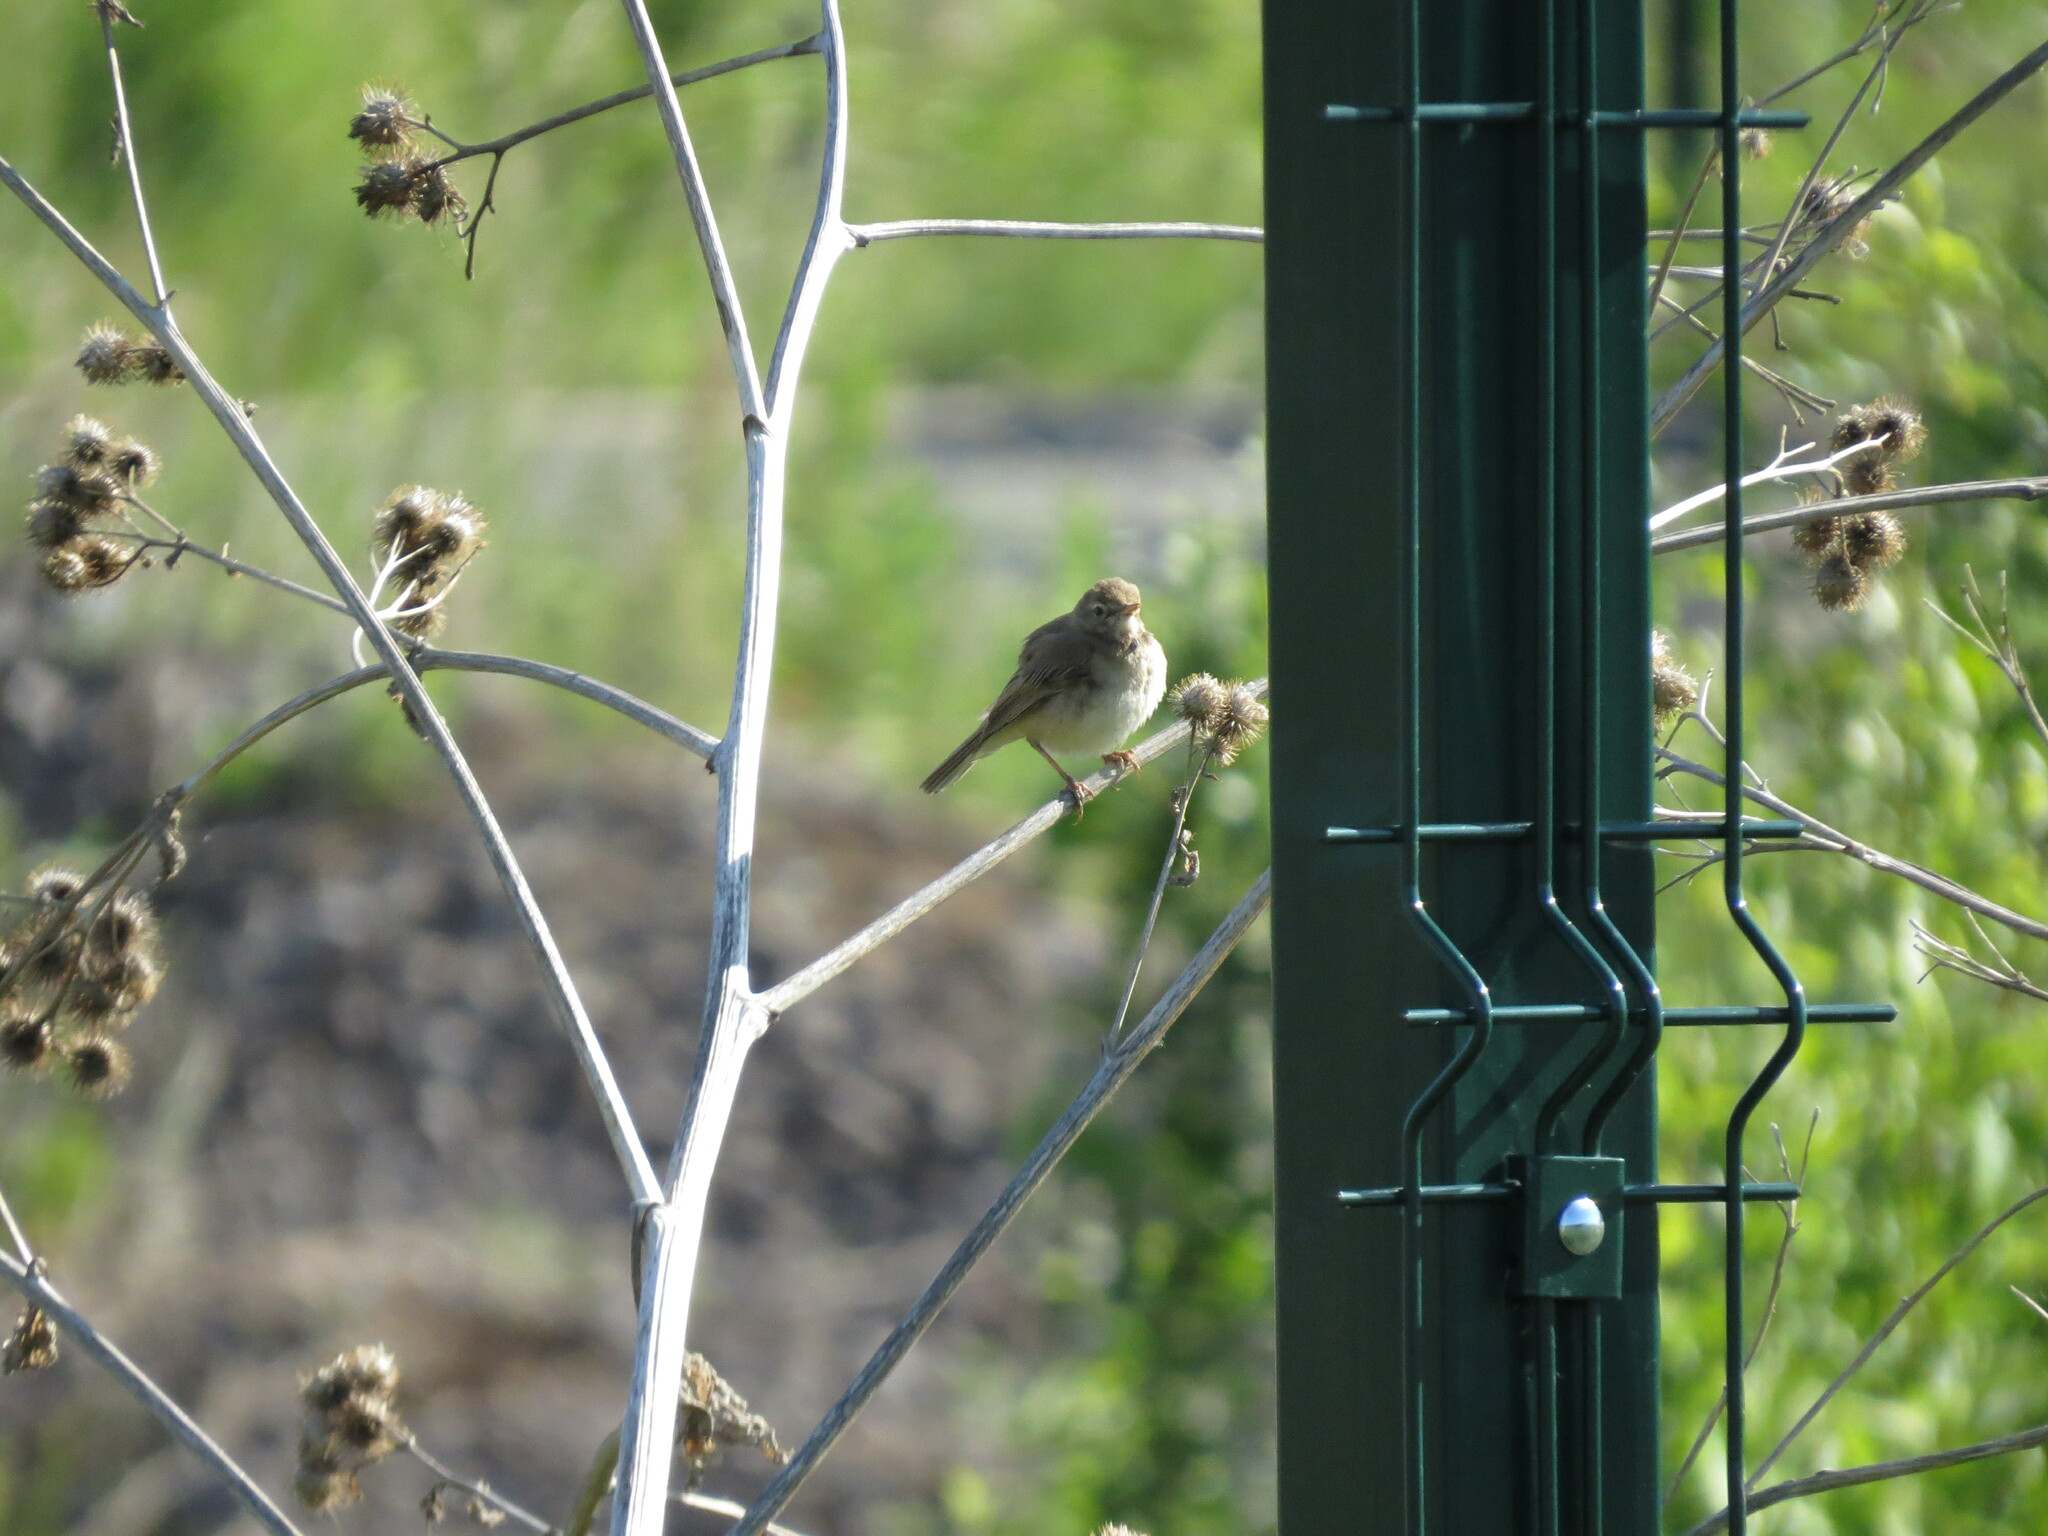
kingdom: Animalia
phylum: Chordata
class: Aves
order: Passeriformes
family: Acrocephalidae
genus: Iduna
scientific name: Iduna caligata
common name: Booted warbler
